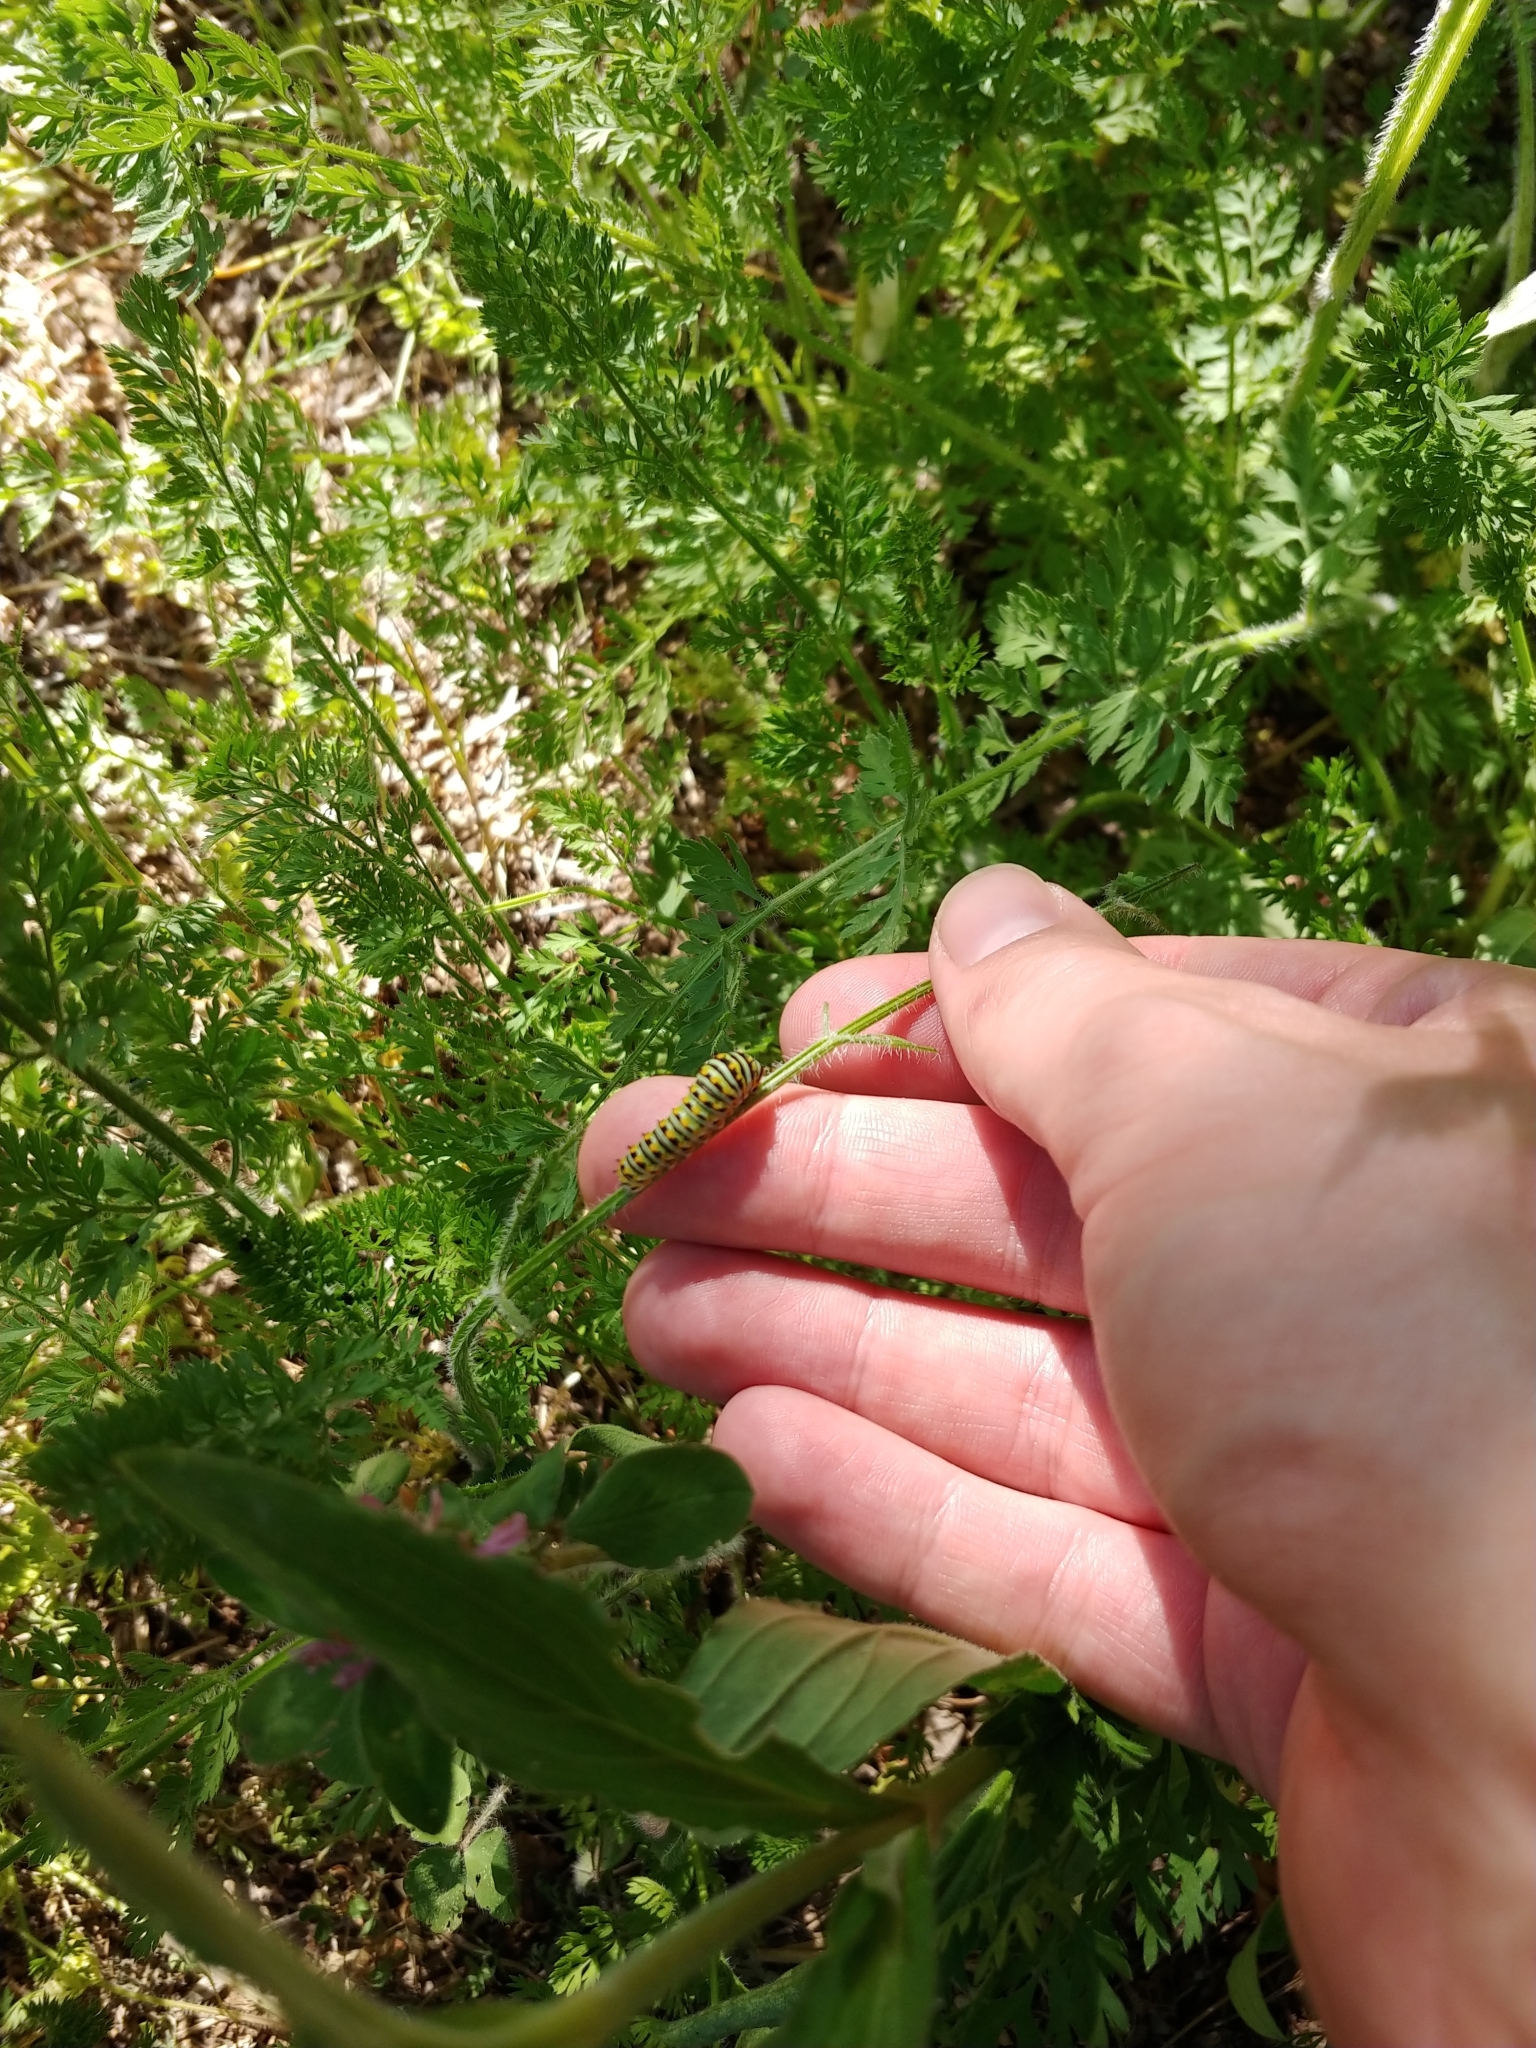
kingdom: Animalia
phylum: Arthropoda
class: Insecta
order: Lepidoptera
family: Papilionidae
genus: Papilio
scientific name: Papilio polyxenes
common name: Black swallowtail
